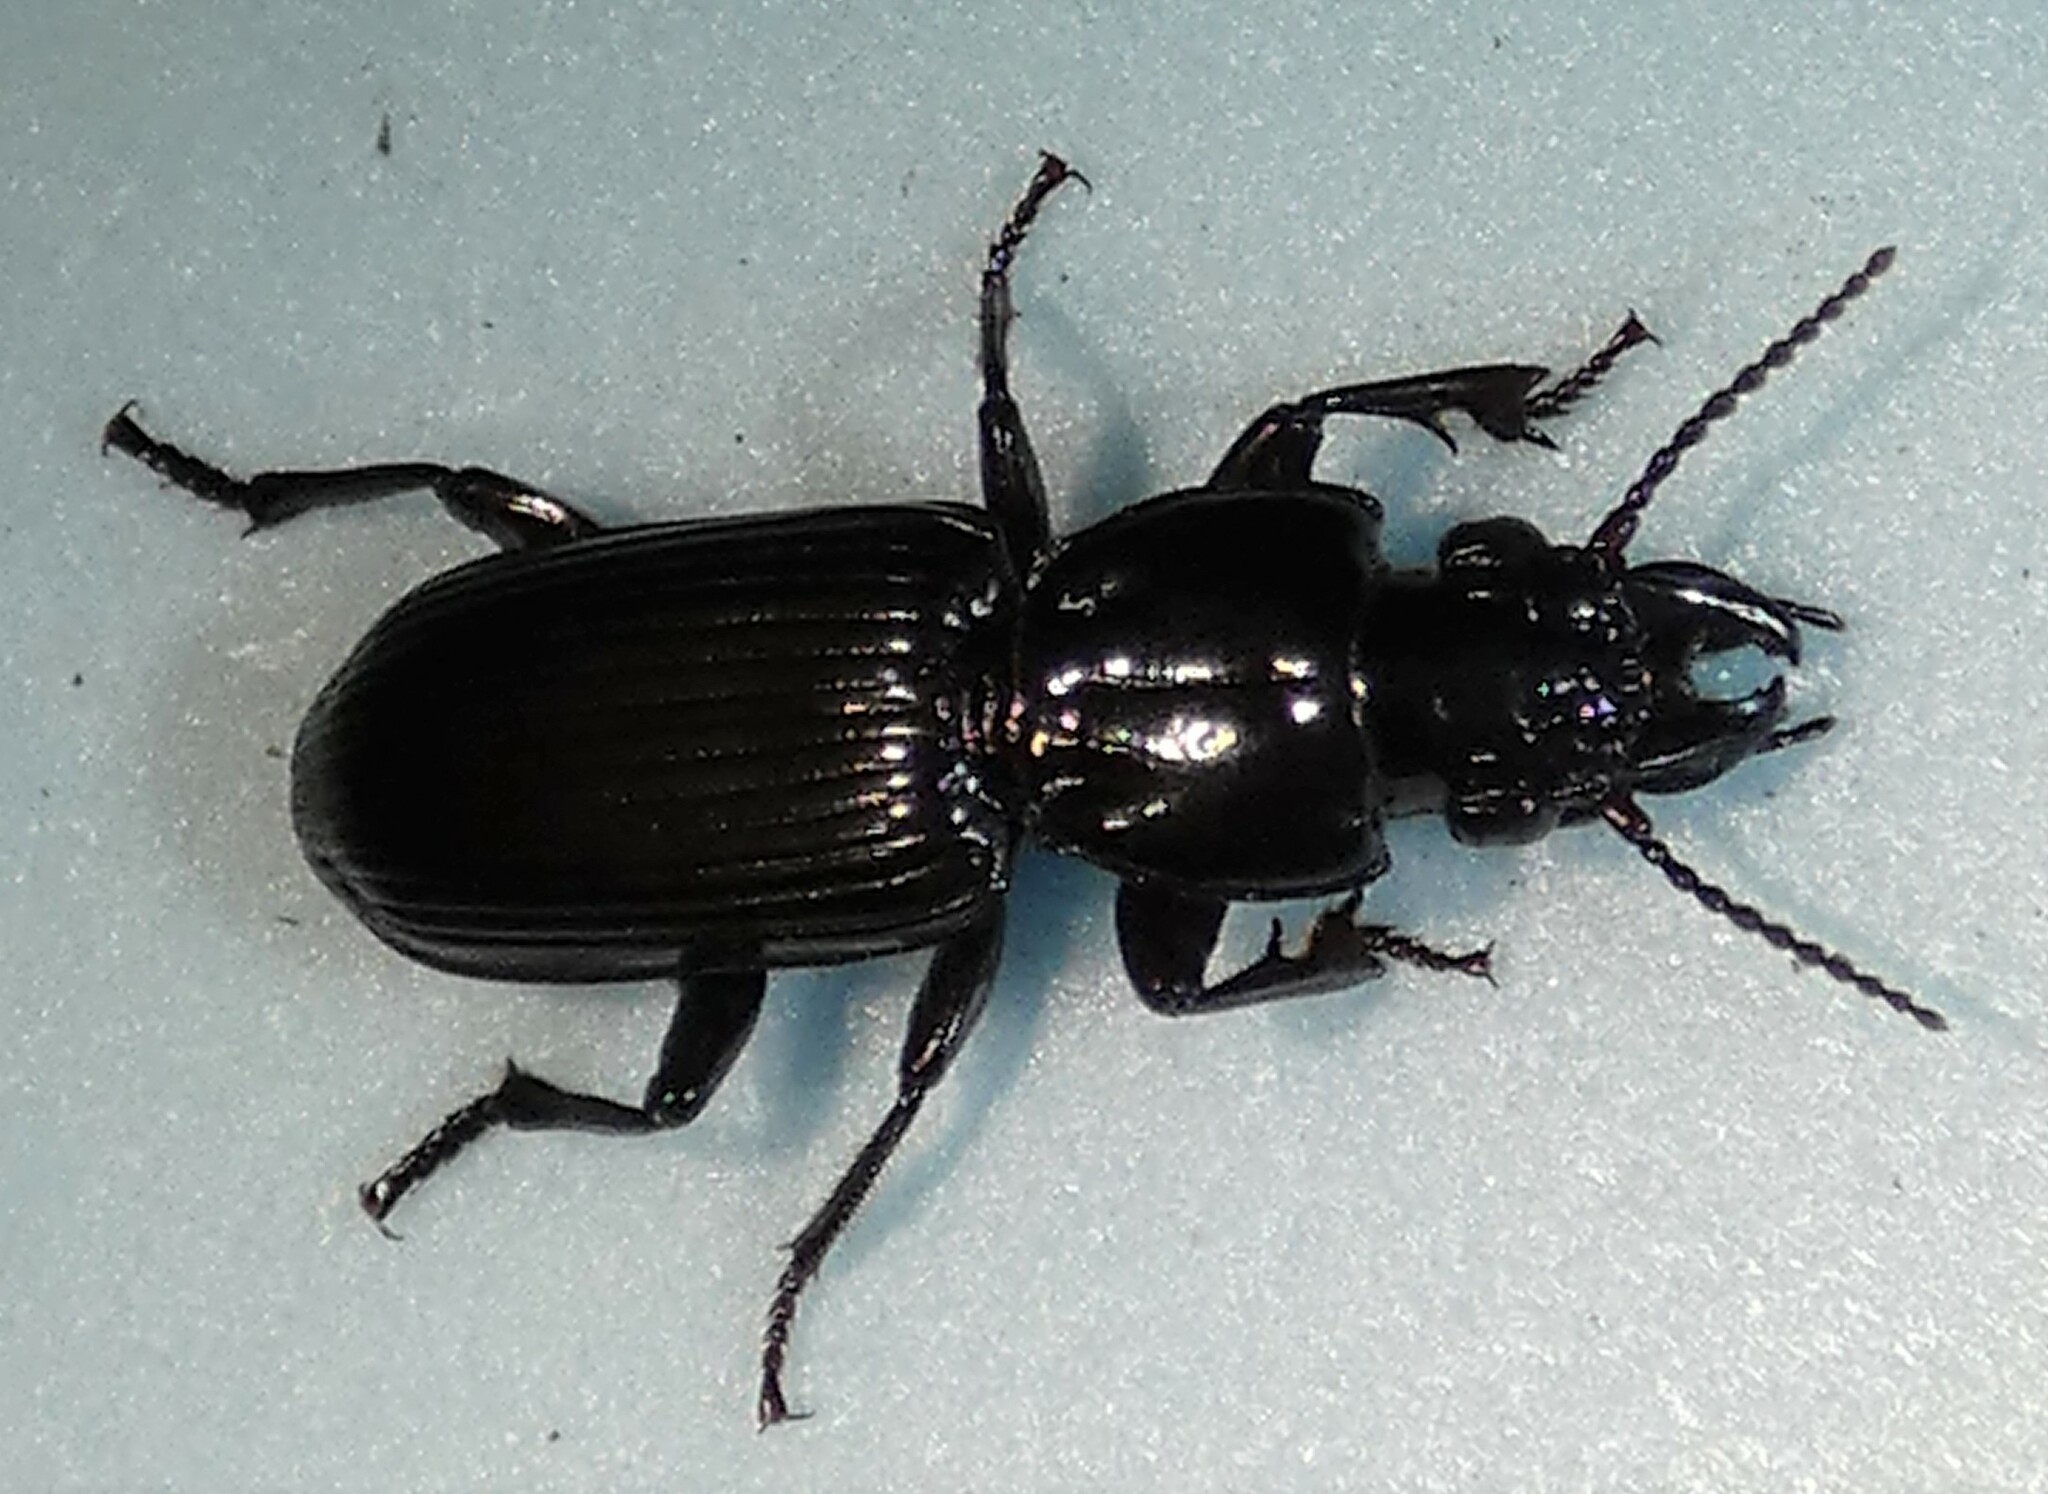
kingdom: Animalia
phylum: Arthropoda
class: Insecta
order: Coleoptera
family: Carabidae
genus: Morion
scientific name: Morion monilicornis
